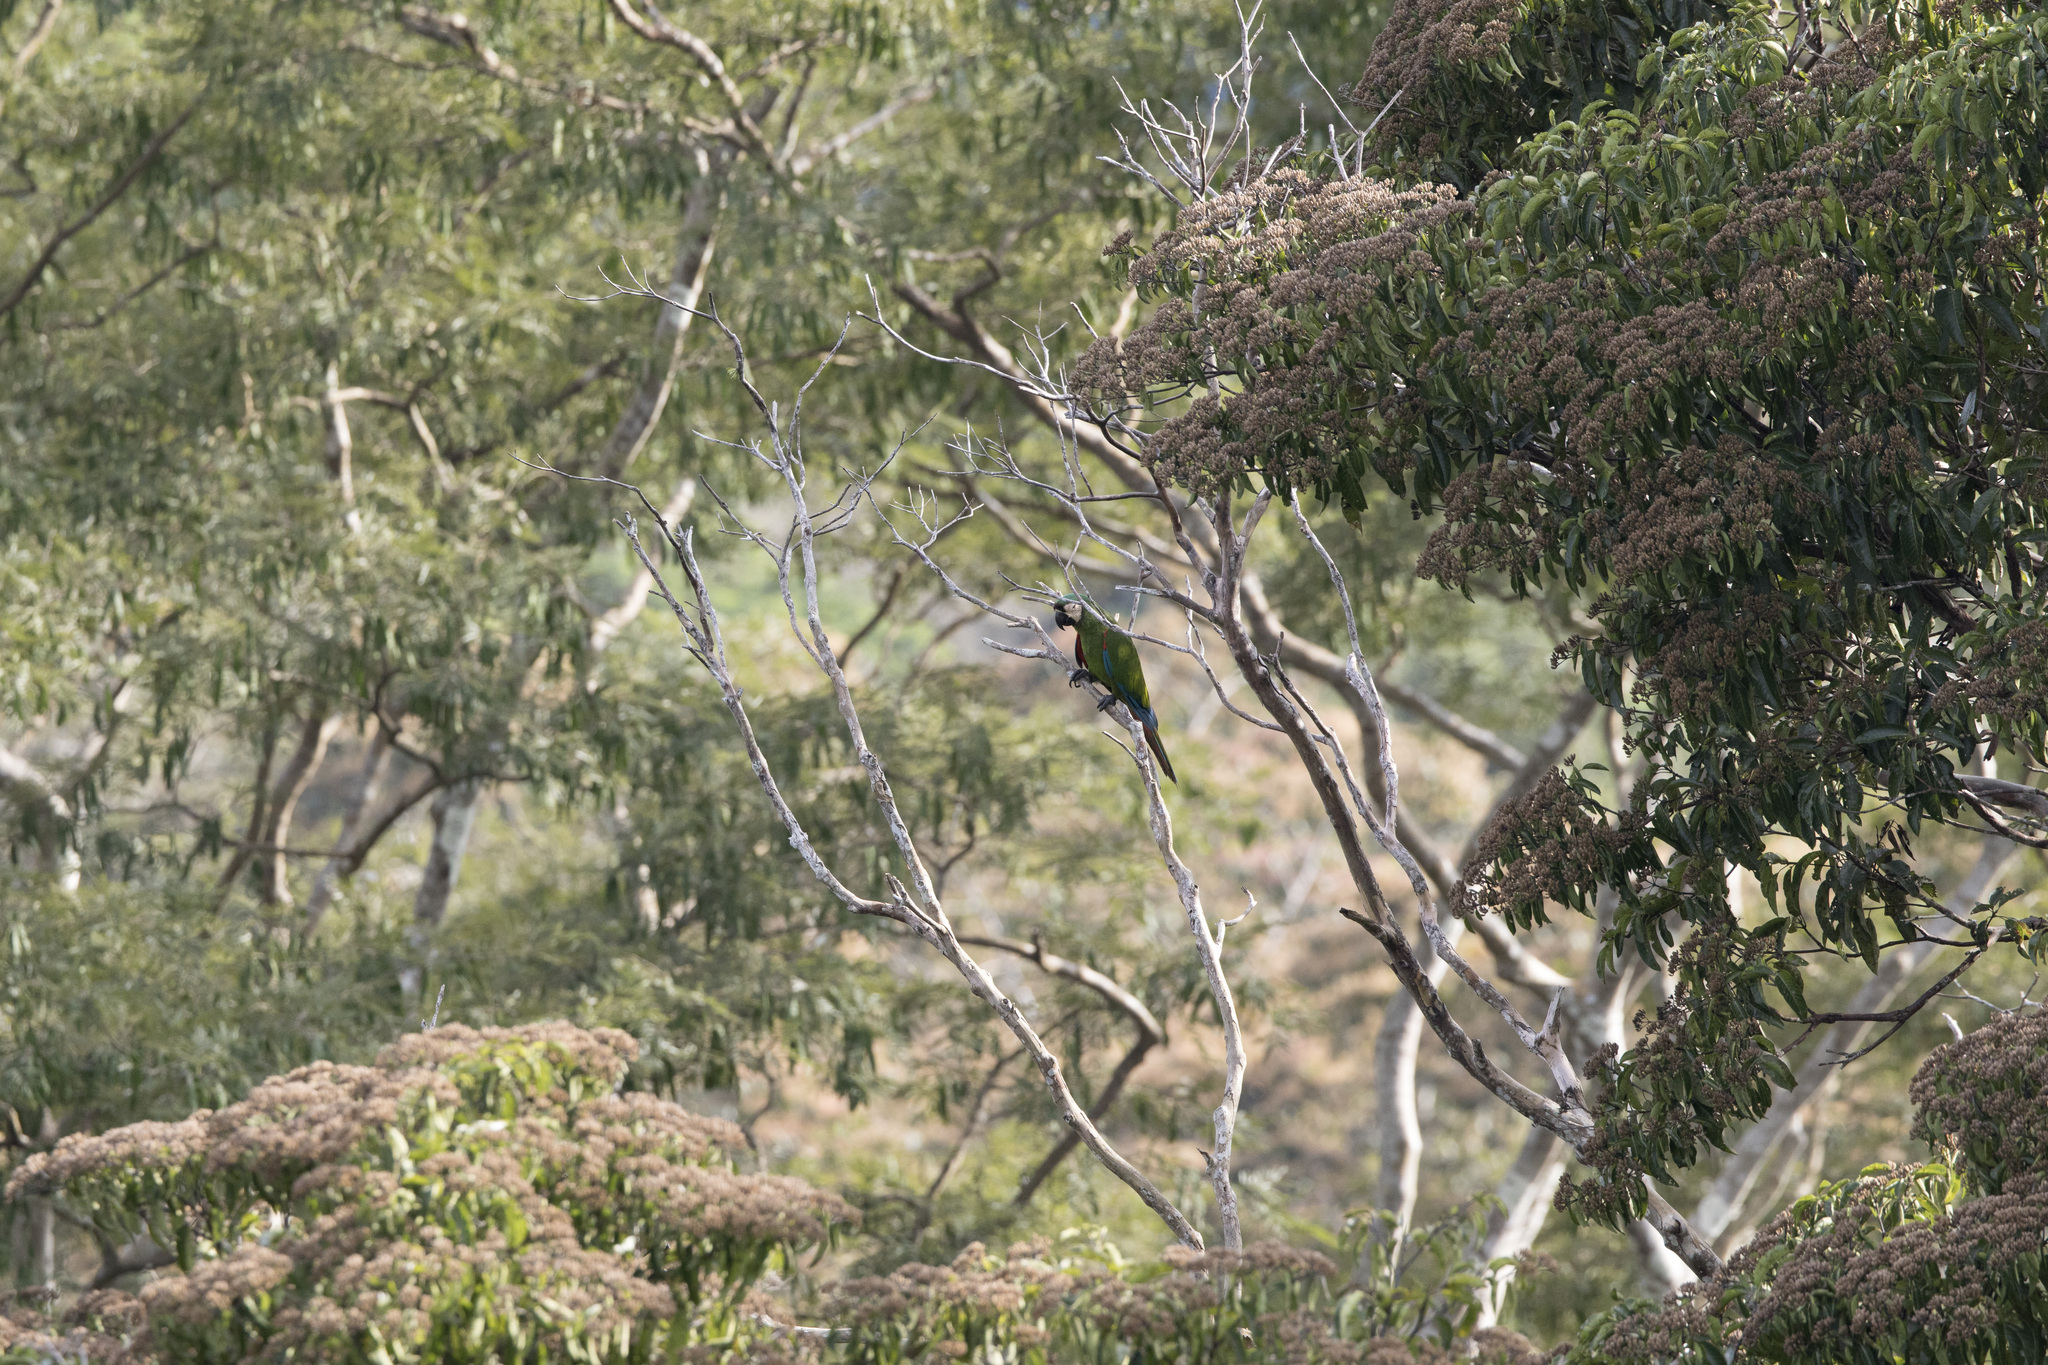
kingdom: Animalia
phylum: Chordata
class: Aves
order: Psittaciformes
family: Psittacidae
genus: Ara
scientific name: Ara severus
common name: Chestnut-fronted macaw
